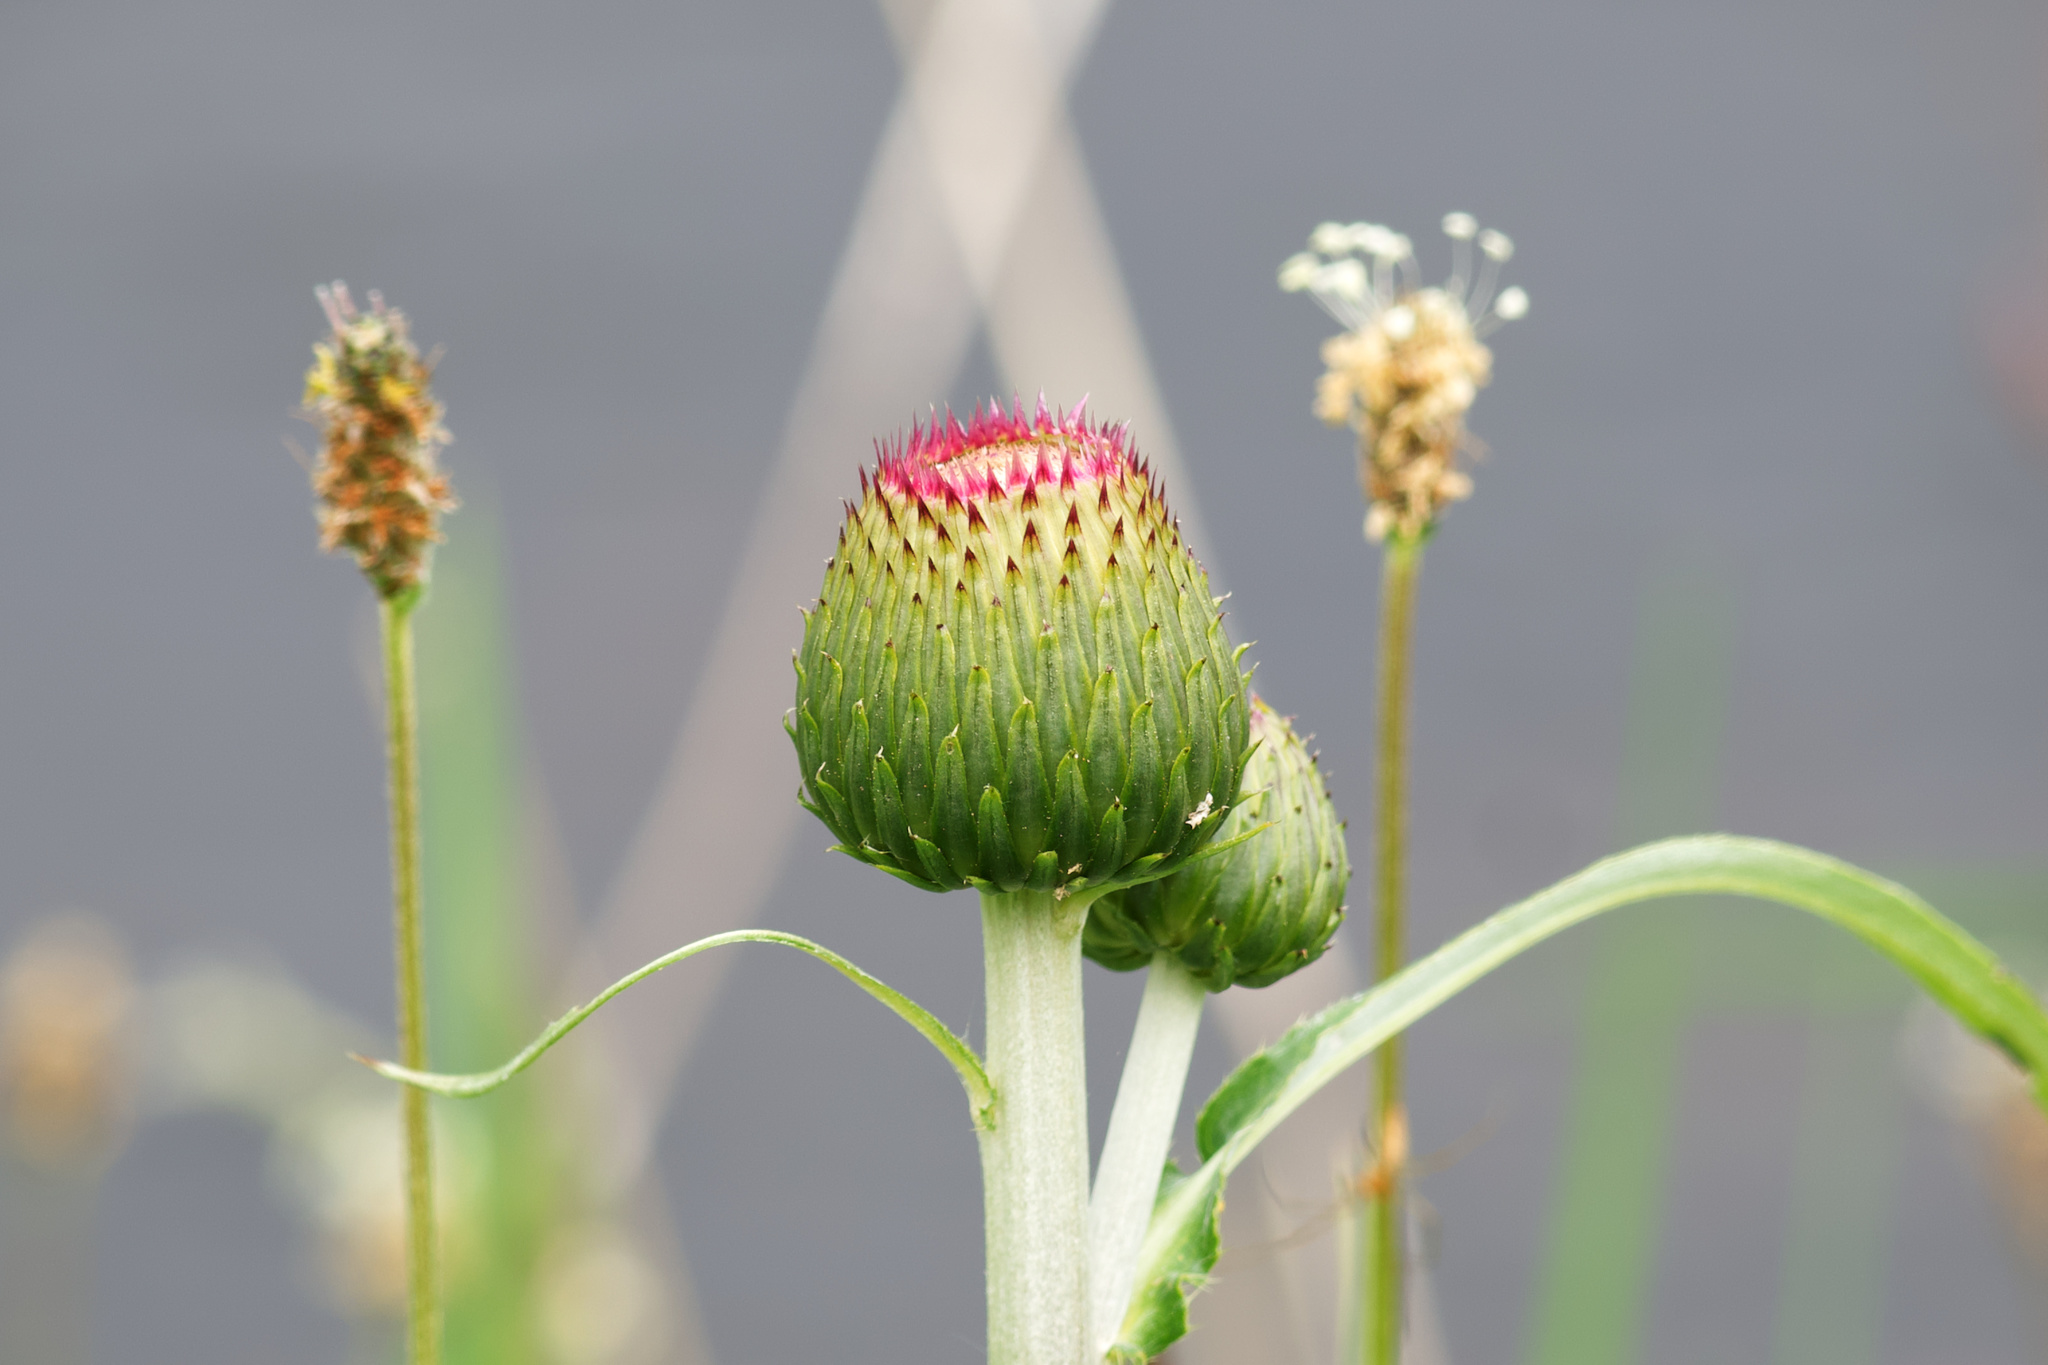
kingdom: Plantae
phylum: Tracheophyta
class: Magnoliopsida
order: Asterales
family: Asteraceae
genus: Cirsium
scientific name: Cirsium heterophyllum
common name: Melancholy thistle
